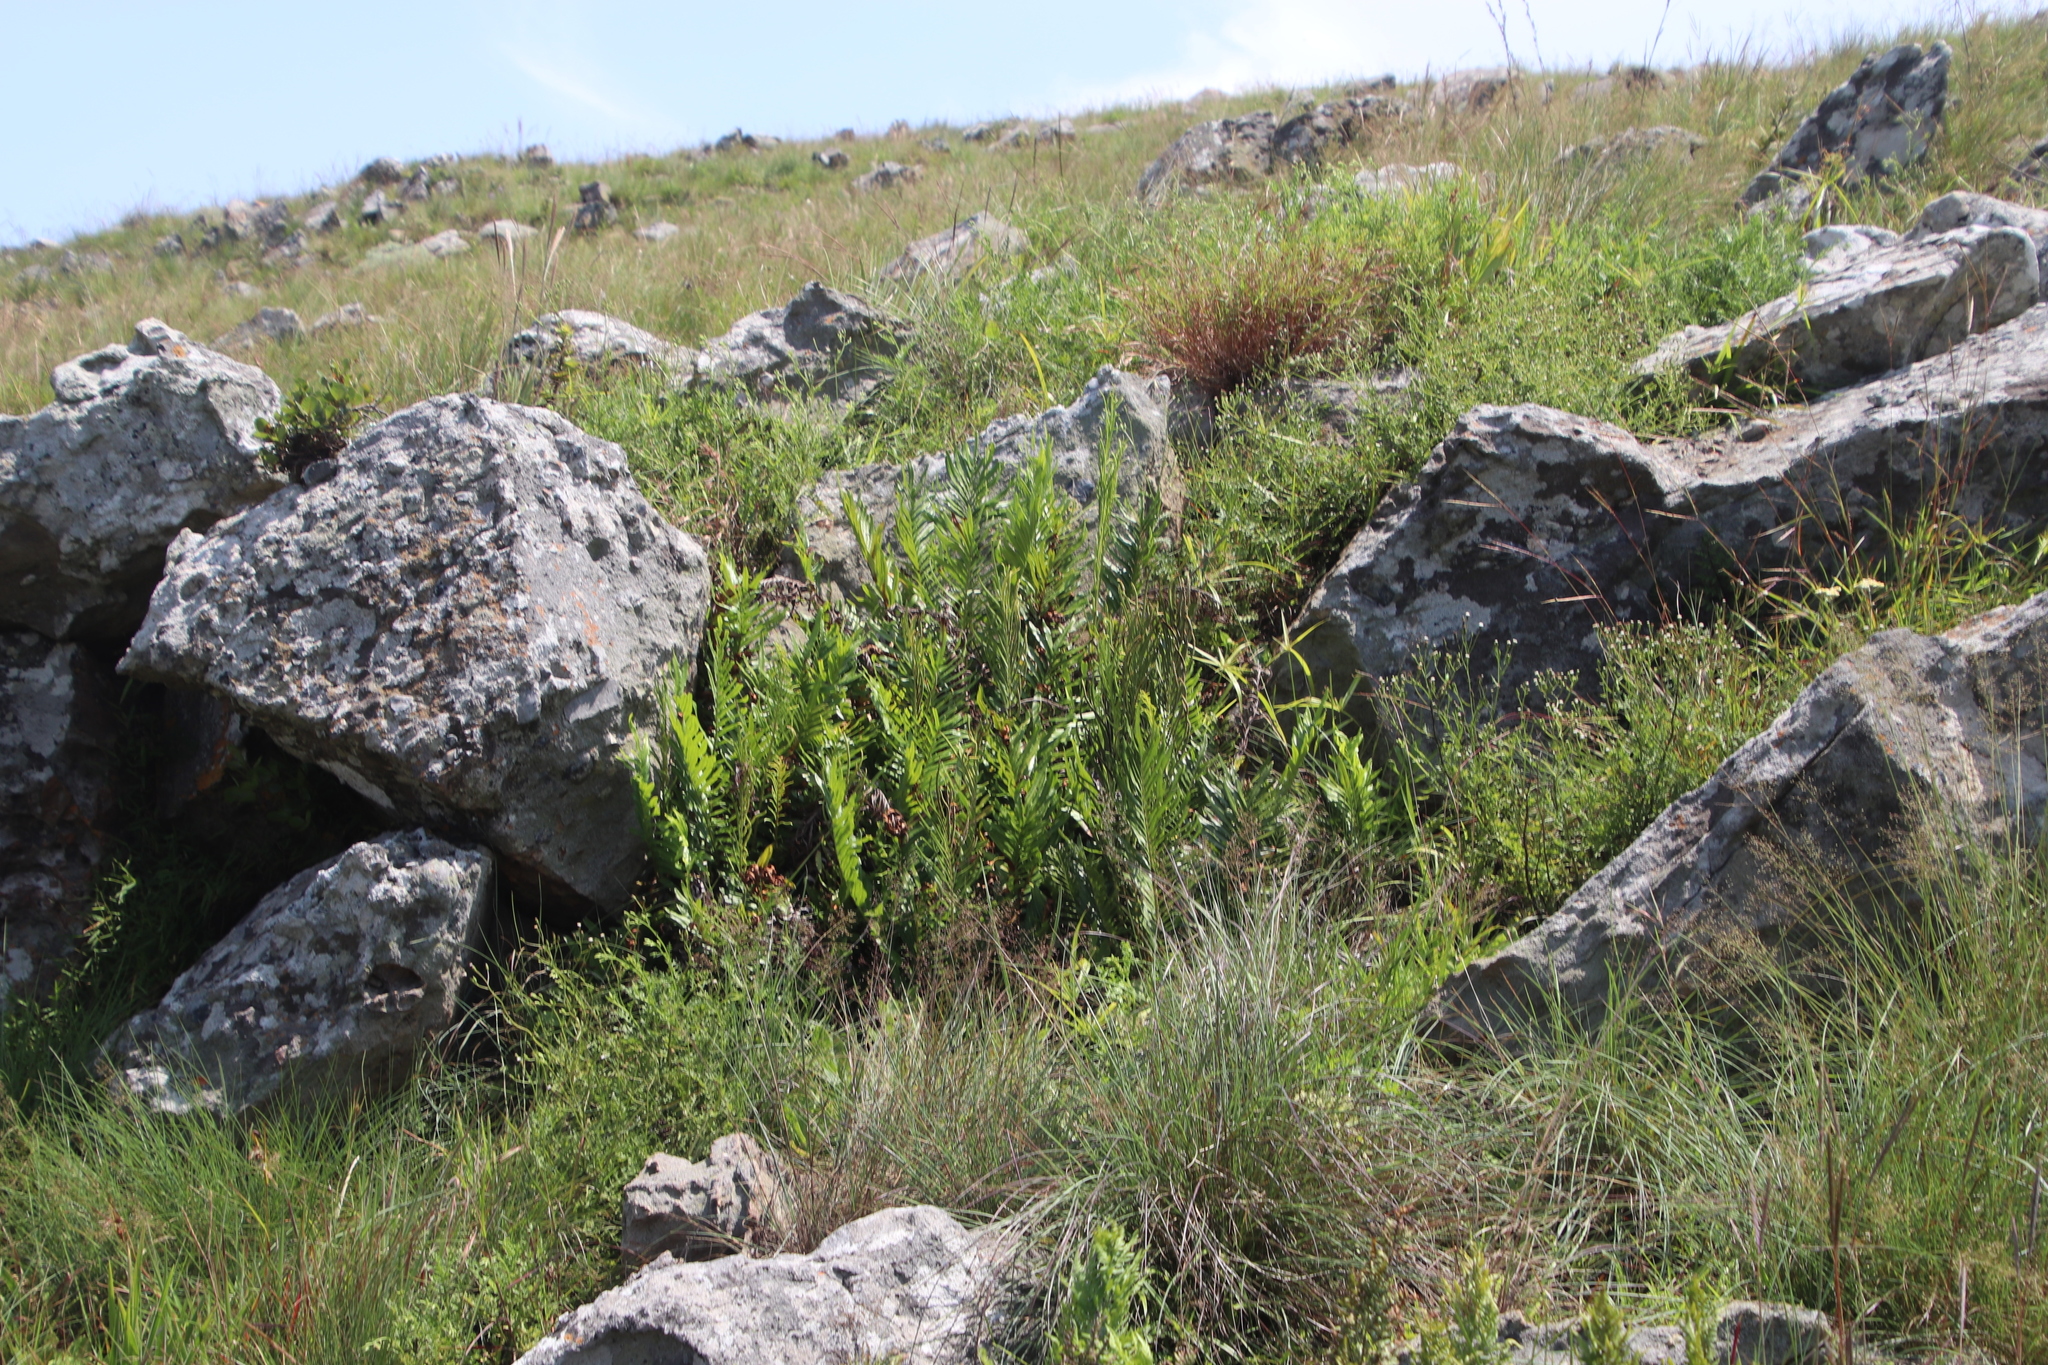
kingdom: Plantae
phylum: Tracheophyta
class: Polypodiopsida
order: Polypodiales
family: Blechnaceae
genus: Lomariocycas
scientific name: Lomariocycas tabularis
